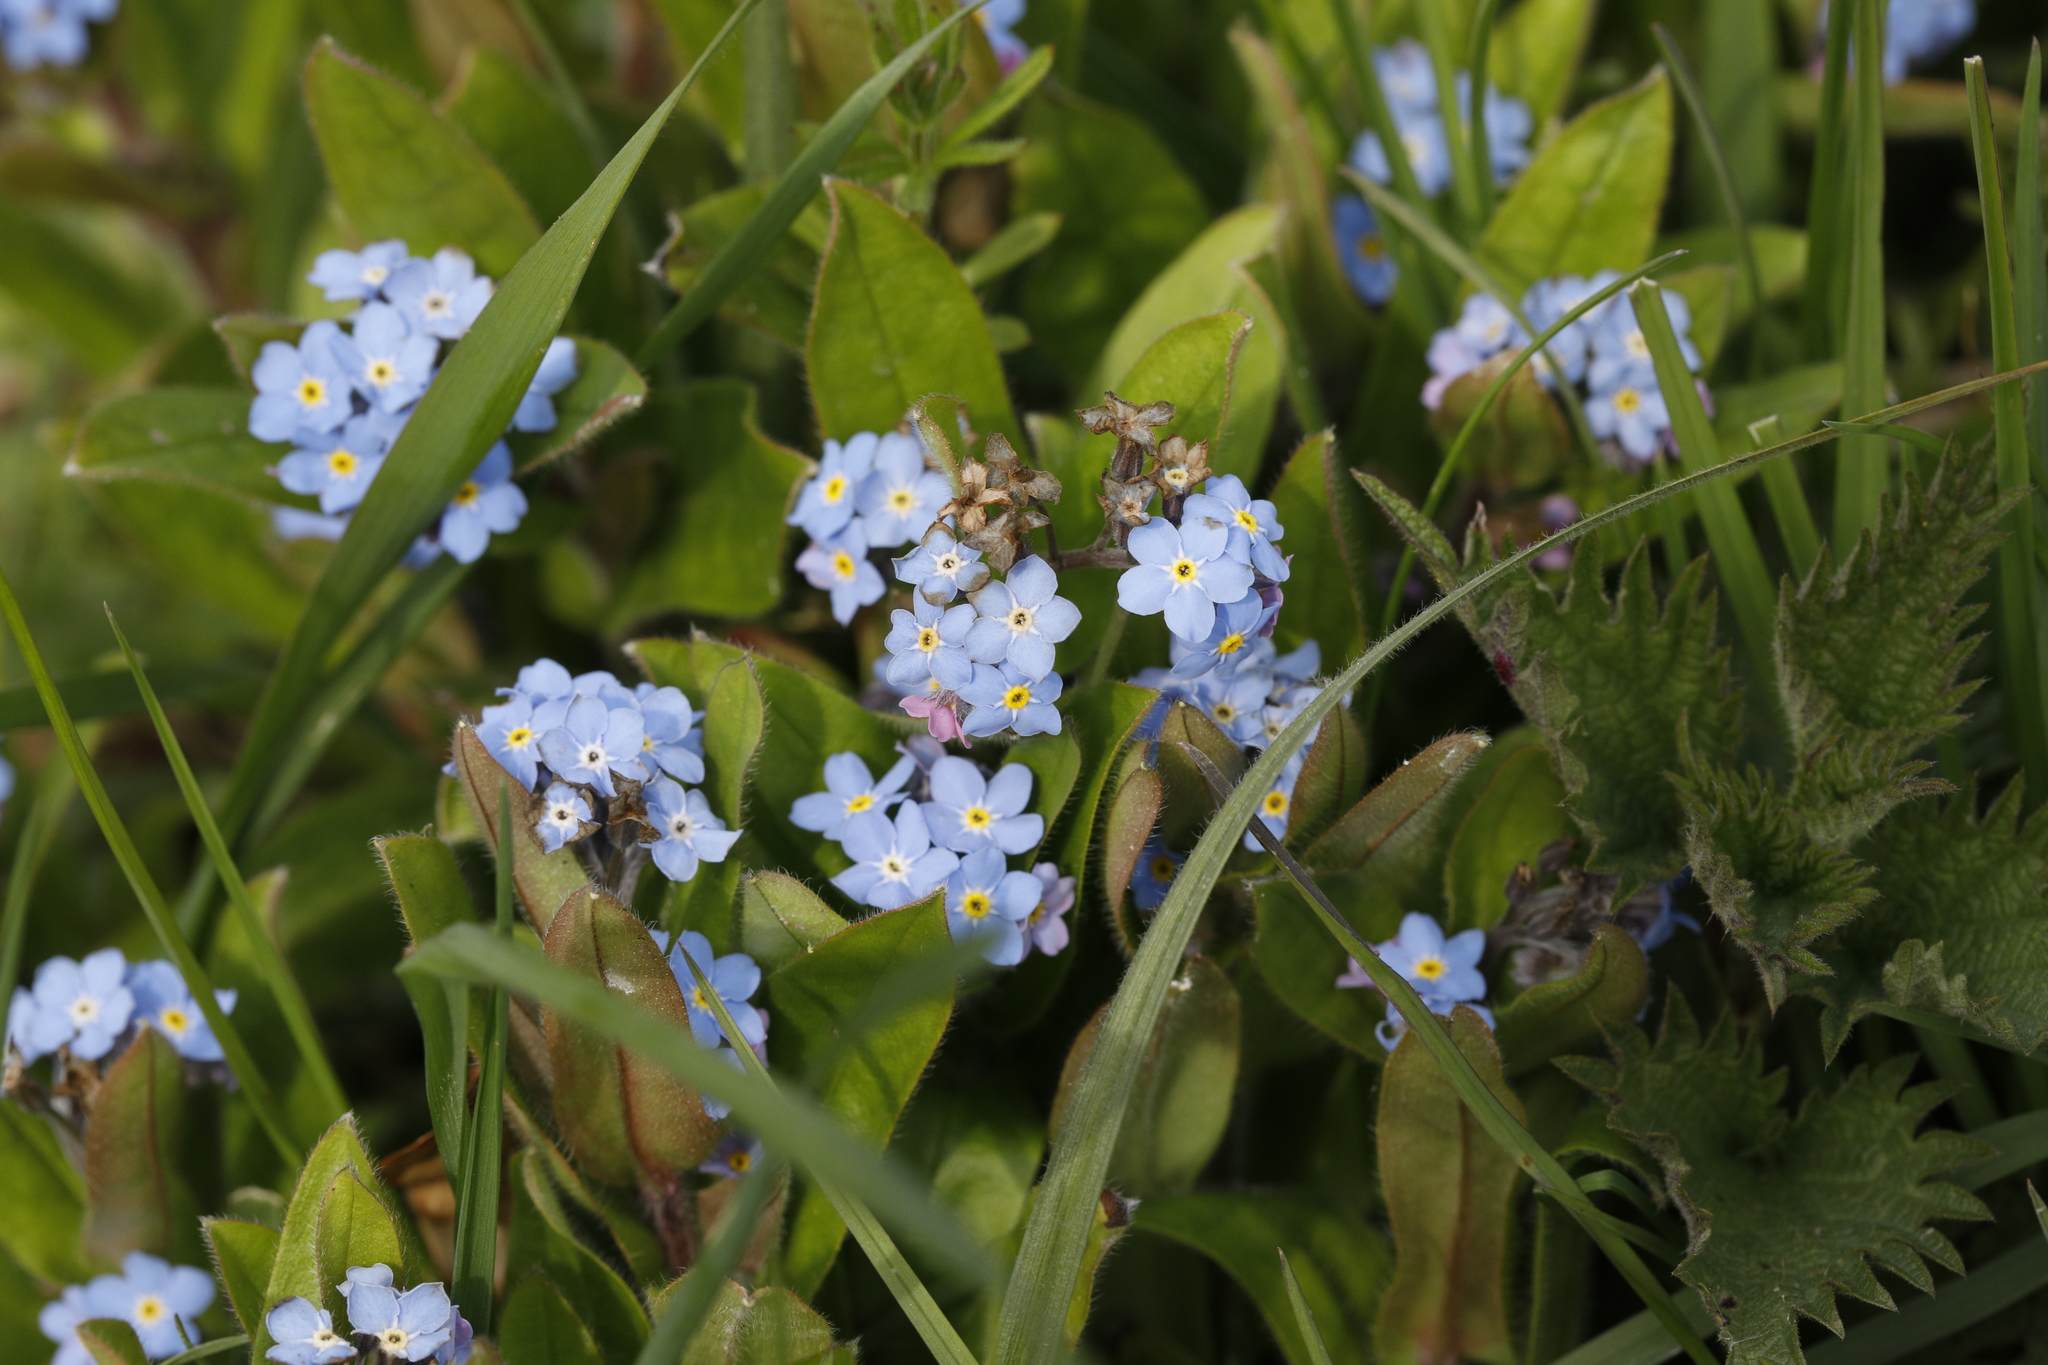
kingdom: Plantae
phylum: Tracheophyta
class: Magnoliopsida
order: Boraginales
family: Boraginaceae
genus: Myosotis
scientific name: Myosotis sylvatica
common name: Wood forget-me-not
